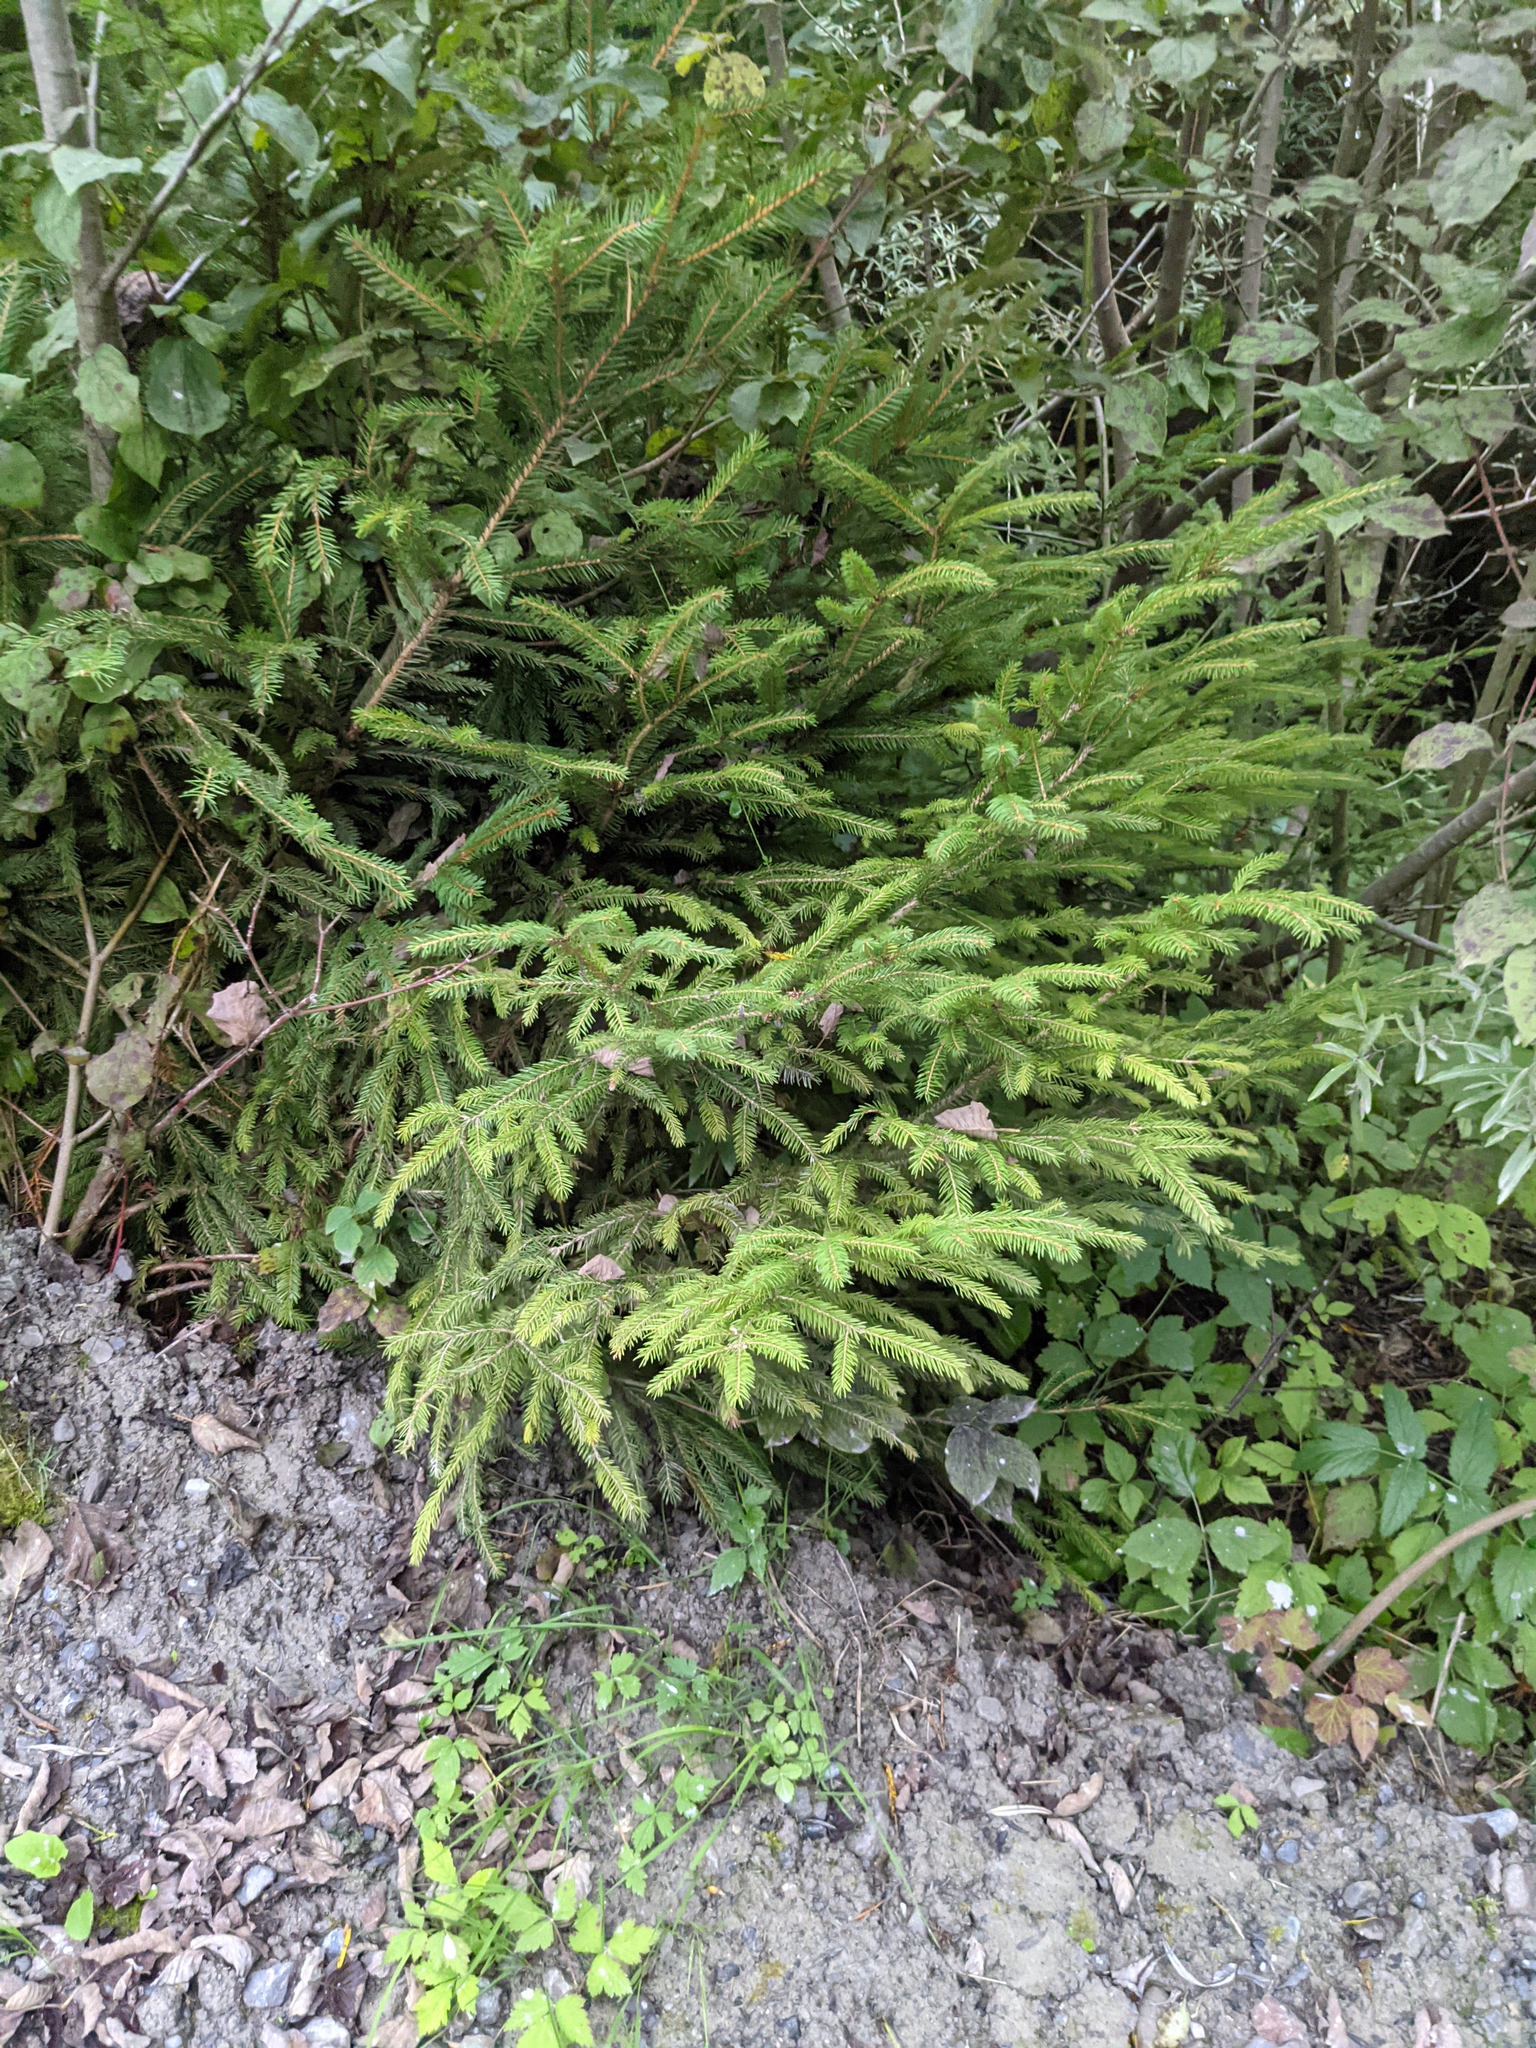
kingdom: Plantae
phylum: Tracheophyta
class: Pinopsida
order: Pinales
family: Pinaceae
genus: Picea
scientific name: Picea abies
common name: Norway spruce
